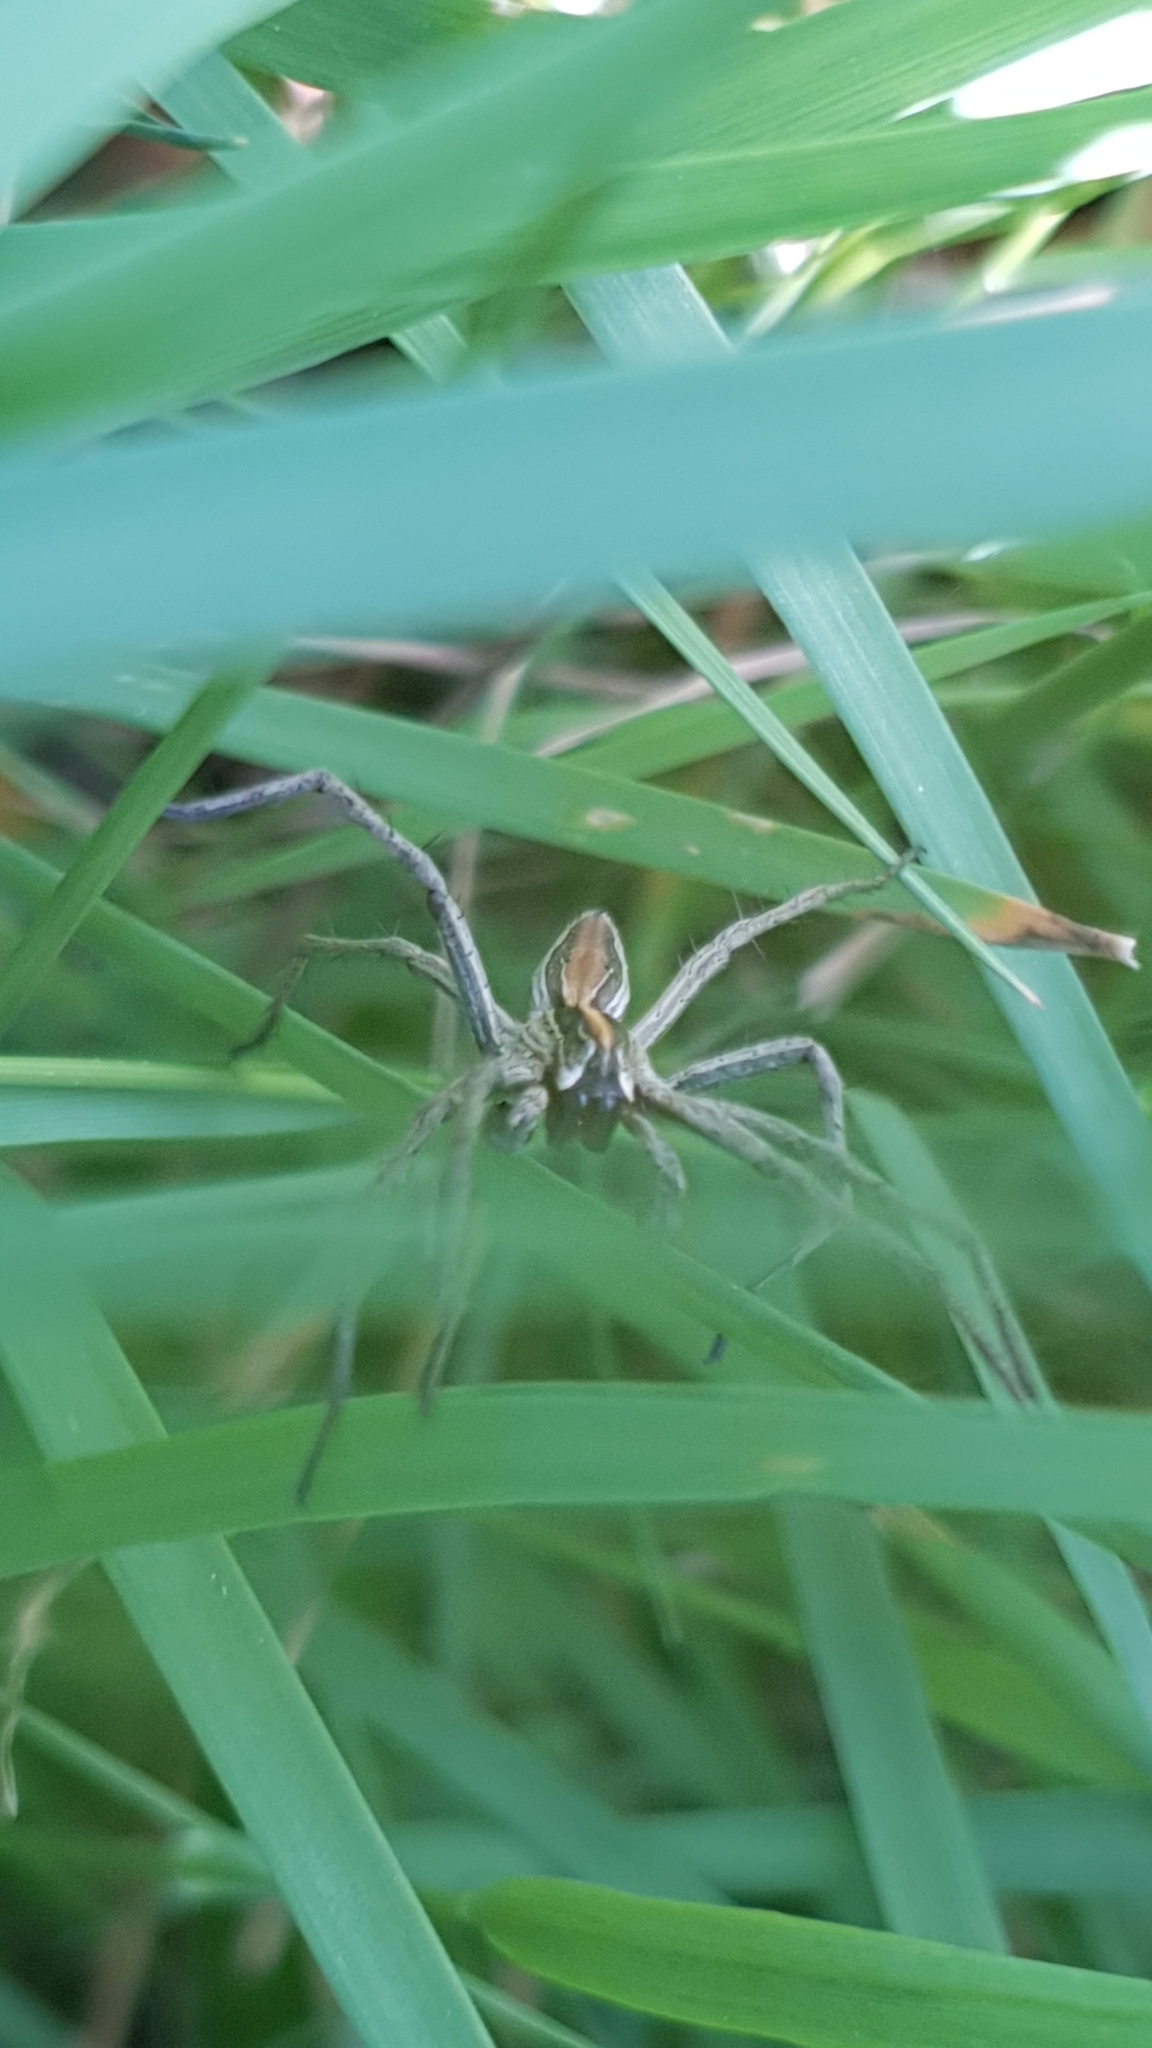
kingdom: Animalia
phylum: Arthropoda
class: Arachnida
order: Araneae
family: Pisauridae
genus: Pisaura
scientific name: Pisaura mirabilis
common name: Tent spider
